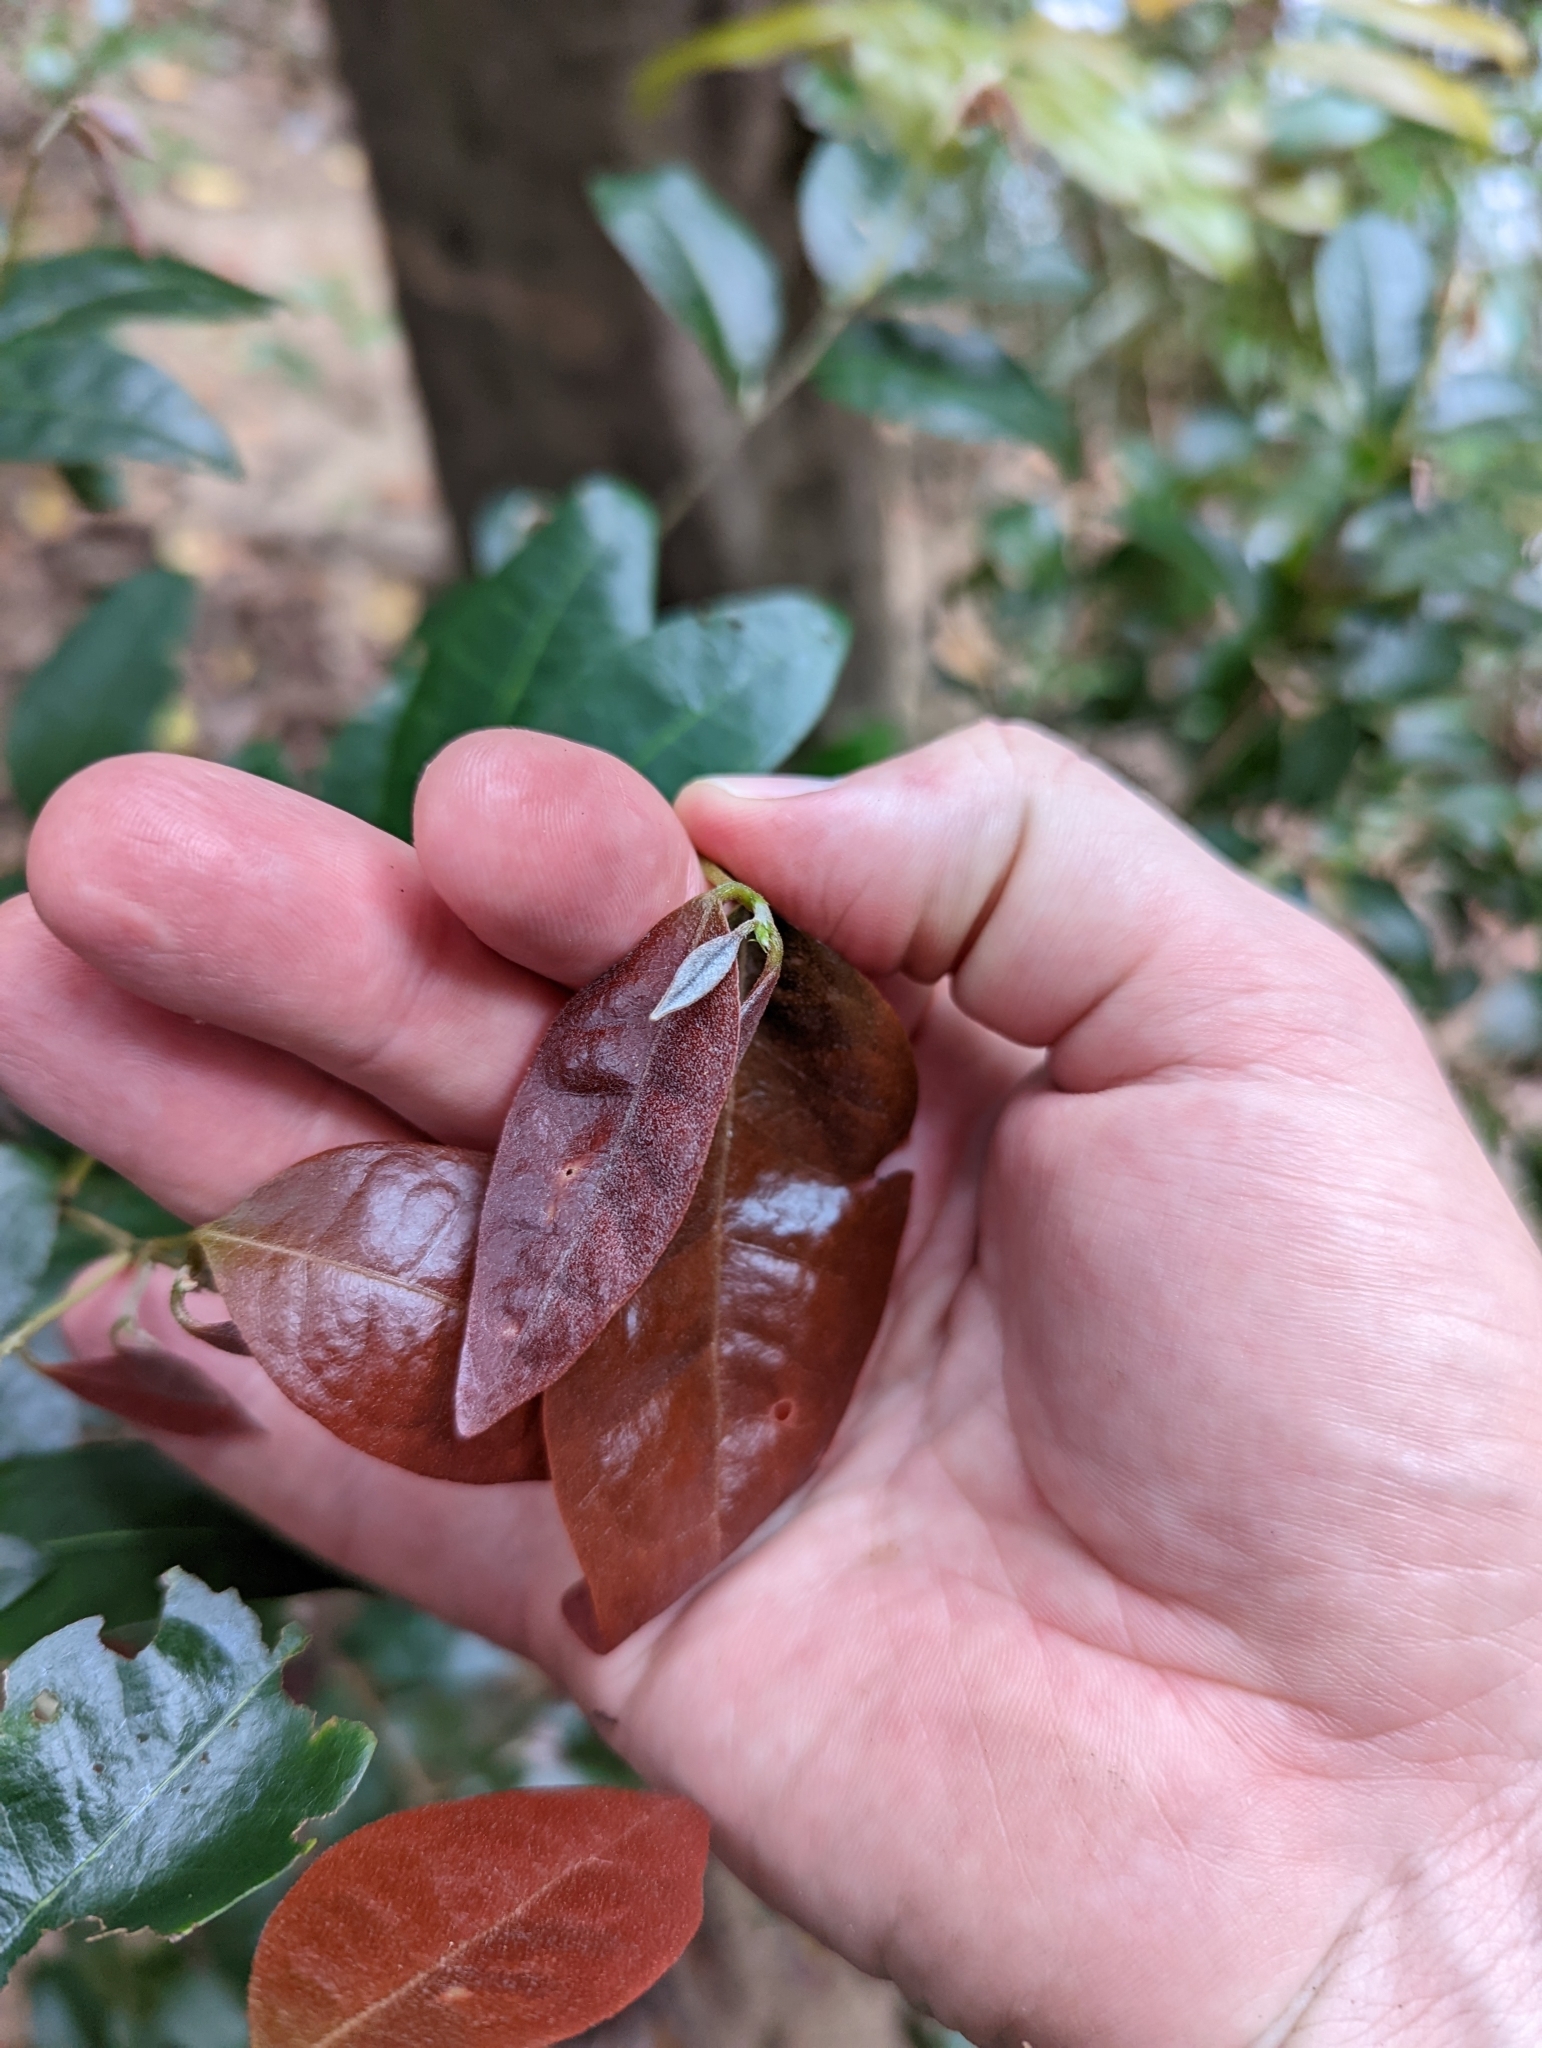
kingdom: Plantae
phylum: Tracheophyta
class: Magnoliopsida
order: Malpighiales
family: Phyllanthaceae
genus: Cleistanthus
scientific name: Cleistanthus cunninghamii
